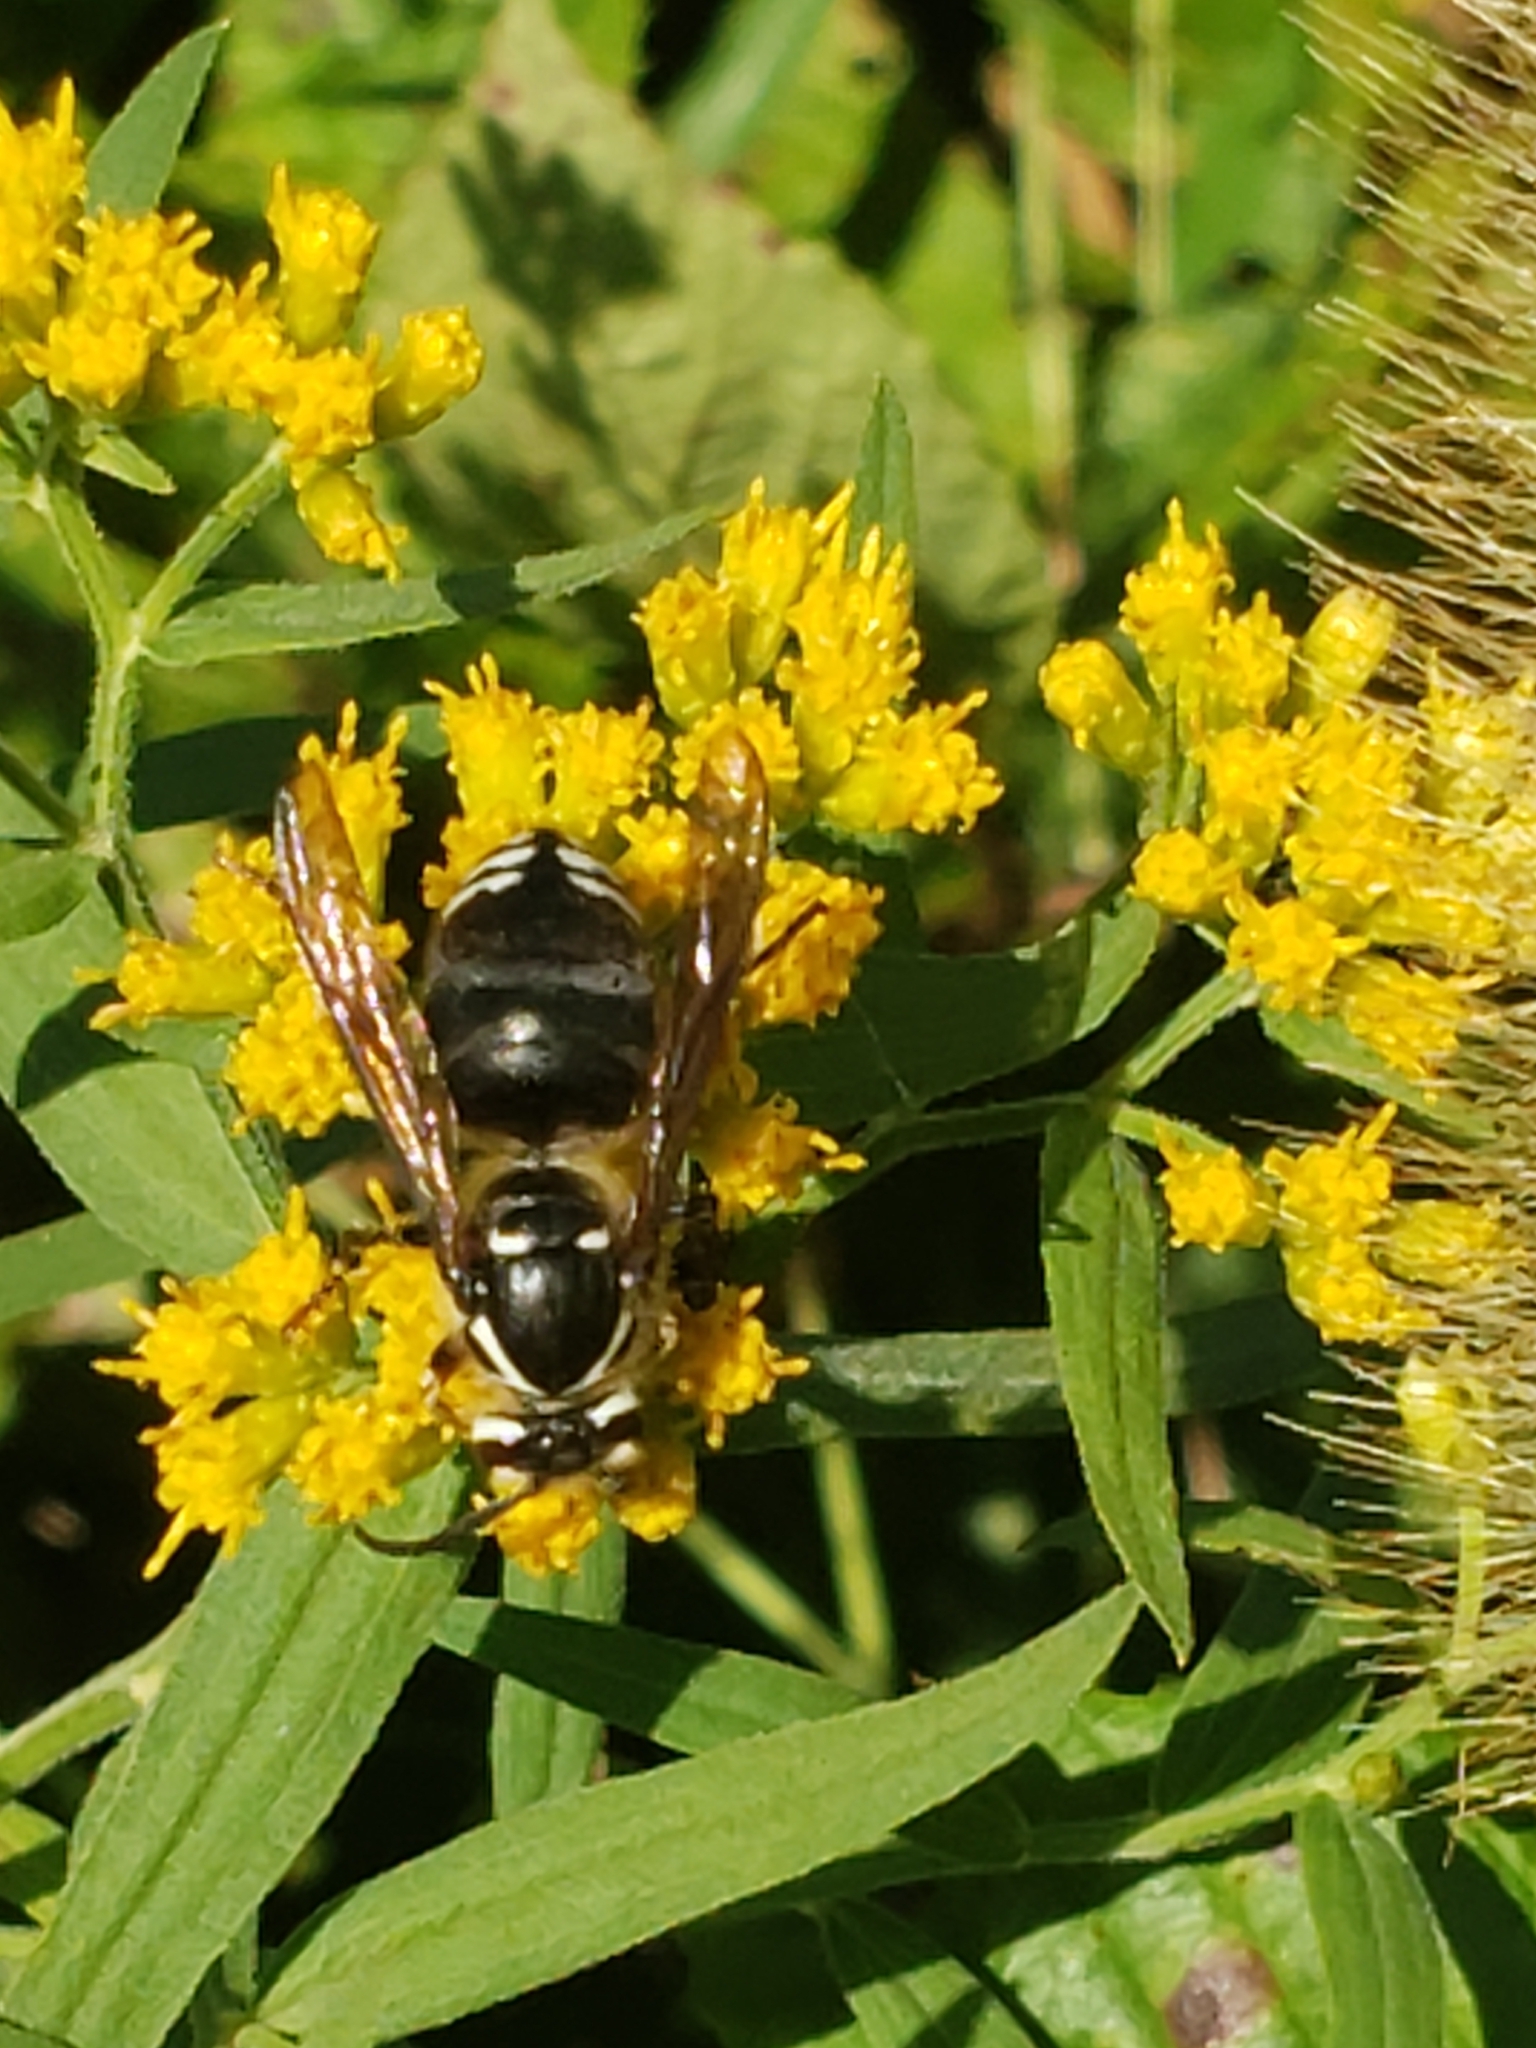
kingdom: Animalia
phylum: Arthropoda
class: Insecta
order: Hymenoptera
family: Vespidae
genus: Dolichovespula
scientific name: Dolichovespula maculata
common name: Bald-faced hornet
